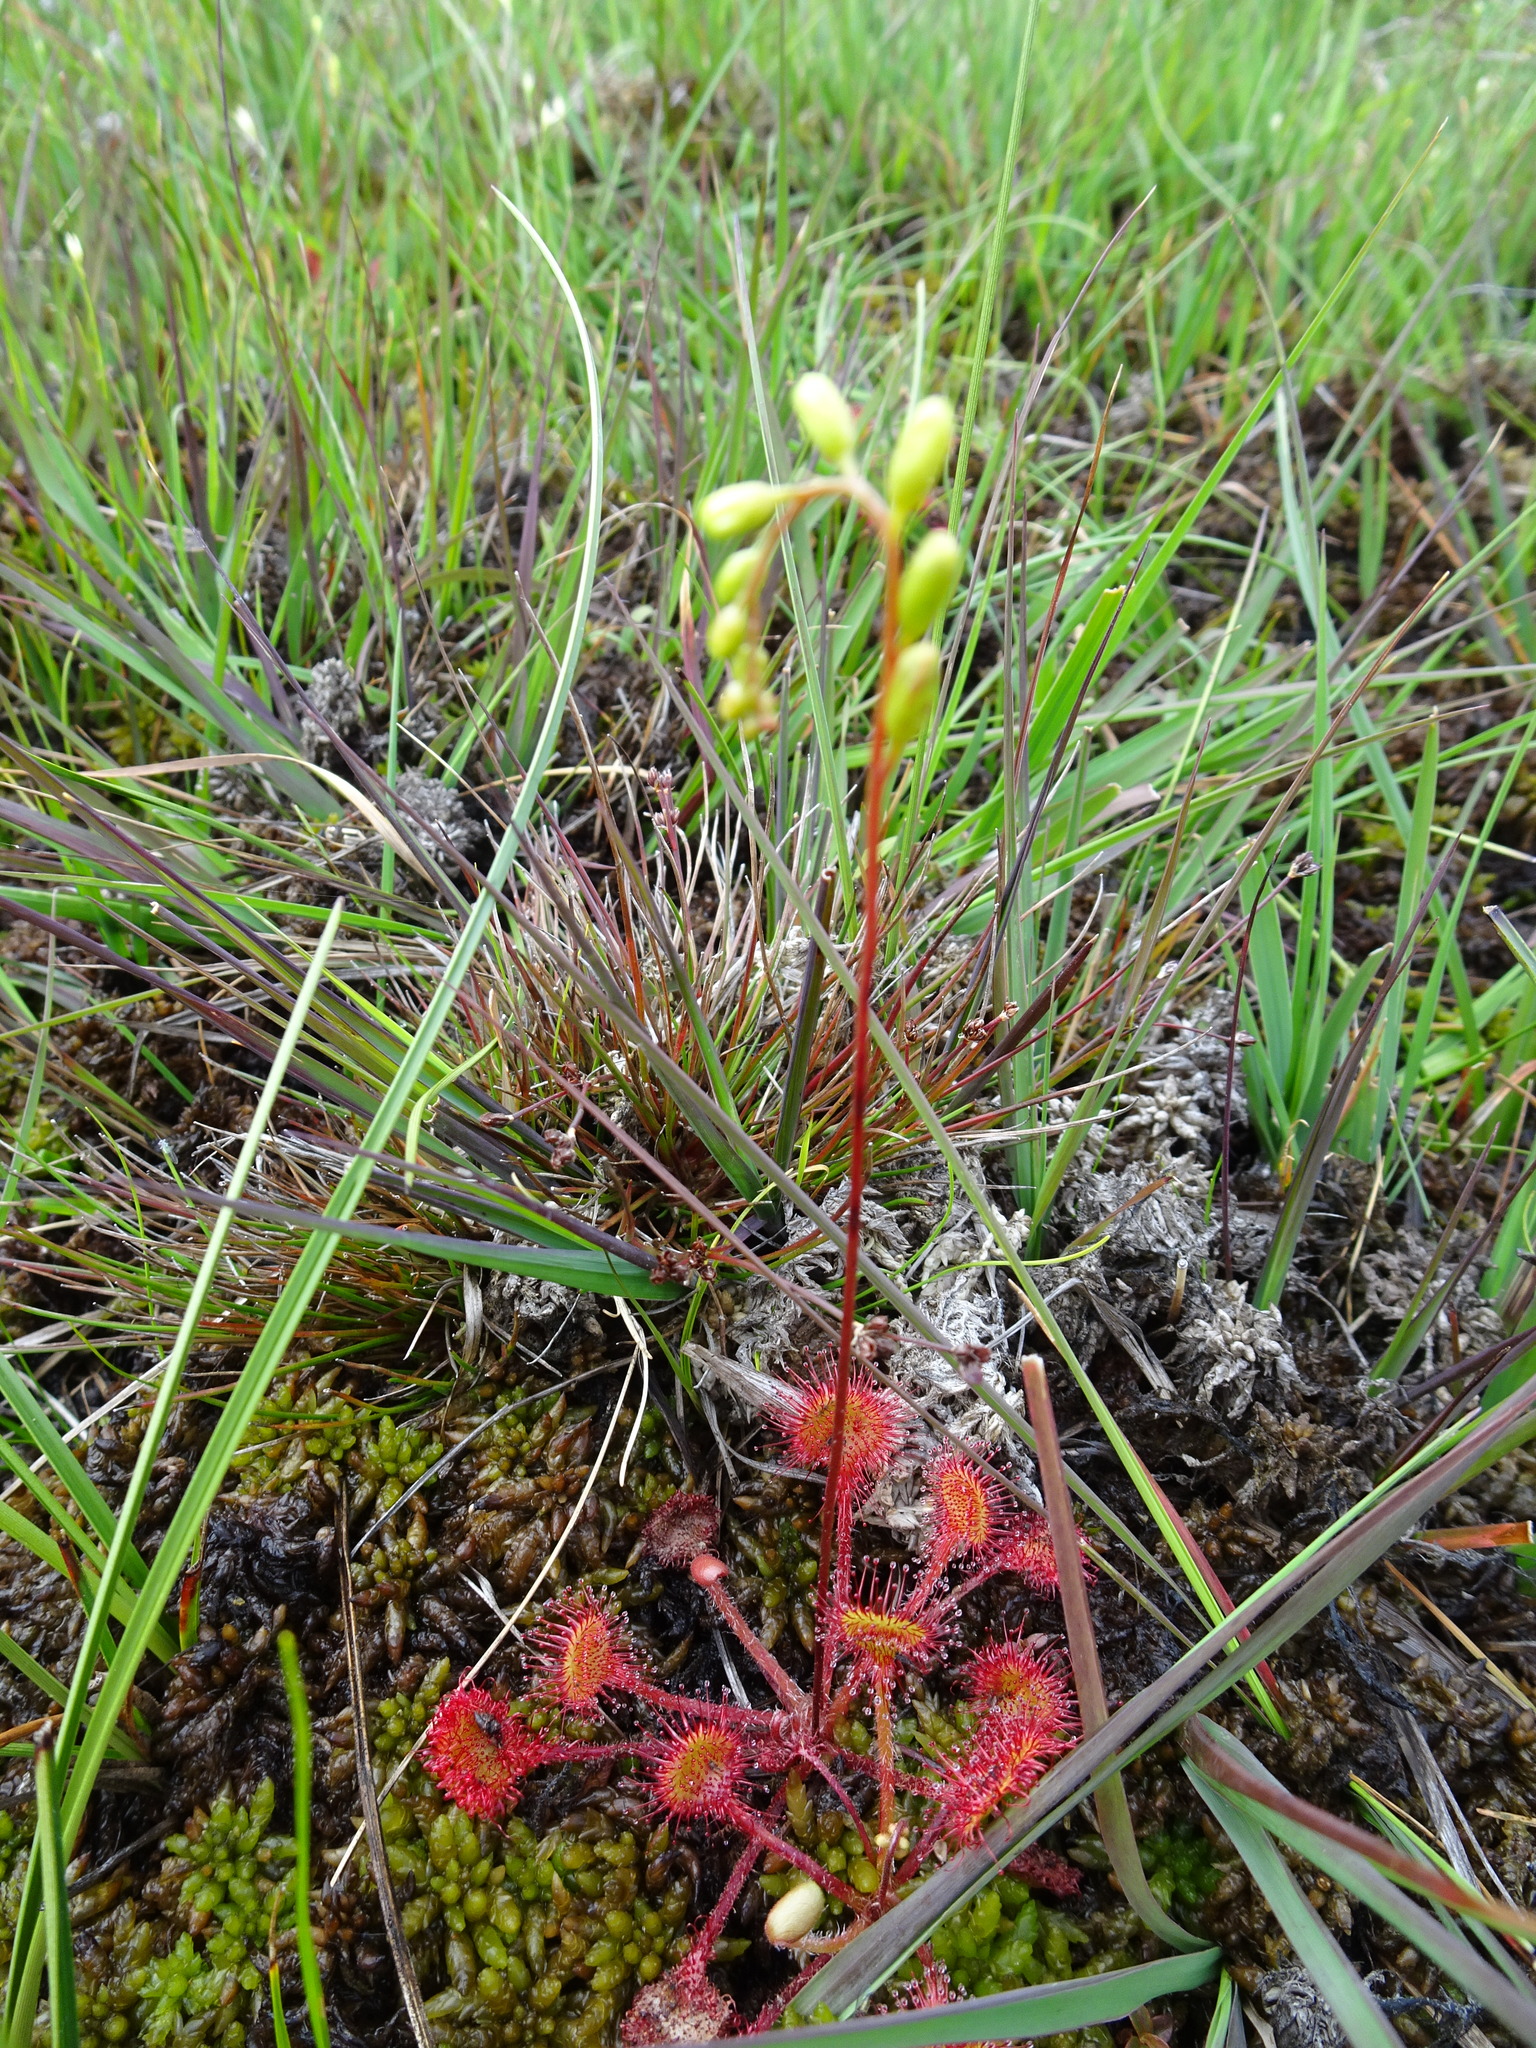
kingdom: Plantae
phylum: Tracheophyta
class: Magnoliopsida
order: Caryophyllales
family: Droseraceae
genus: Drosera
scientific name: Drosera rotundifolia
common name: Round-leaved sundew
